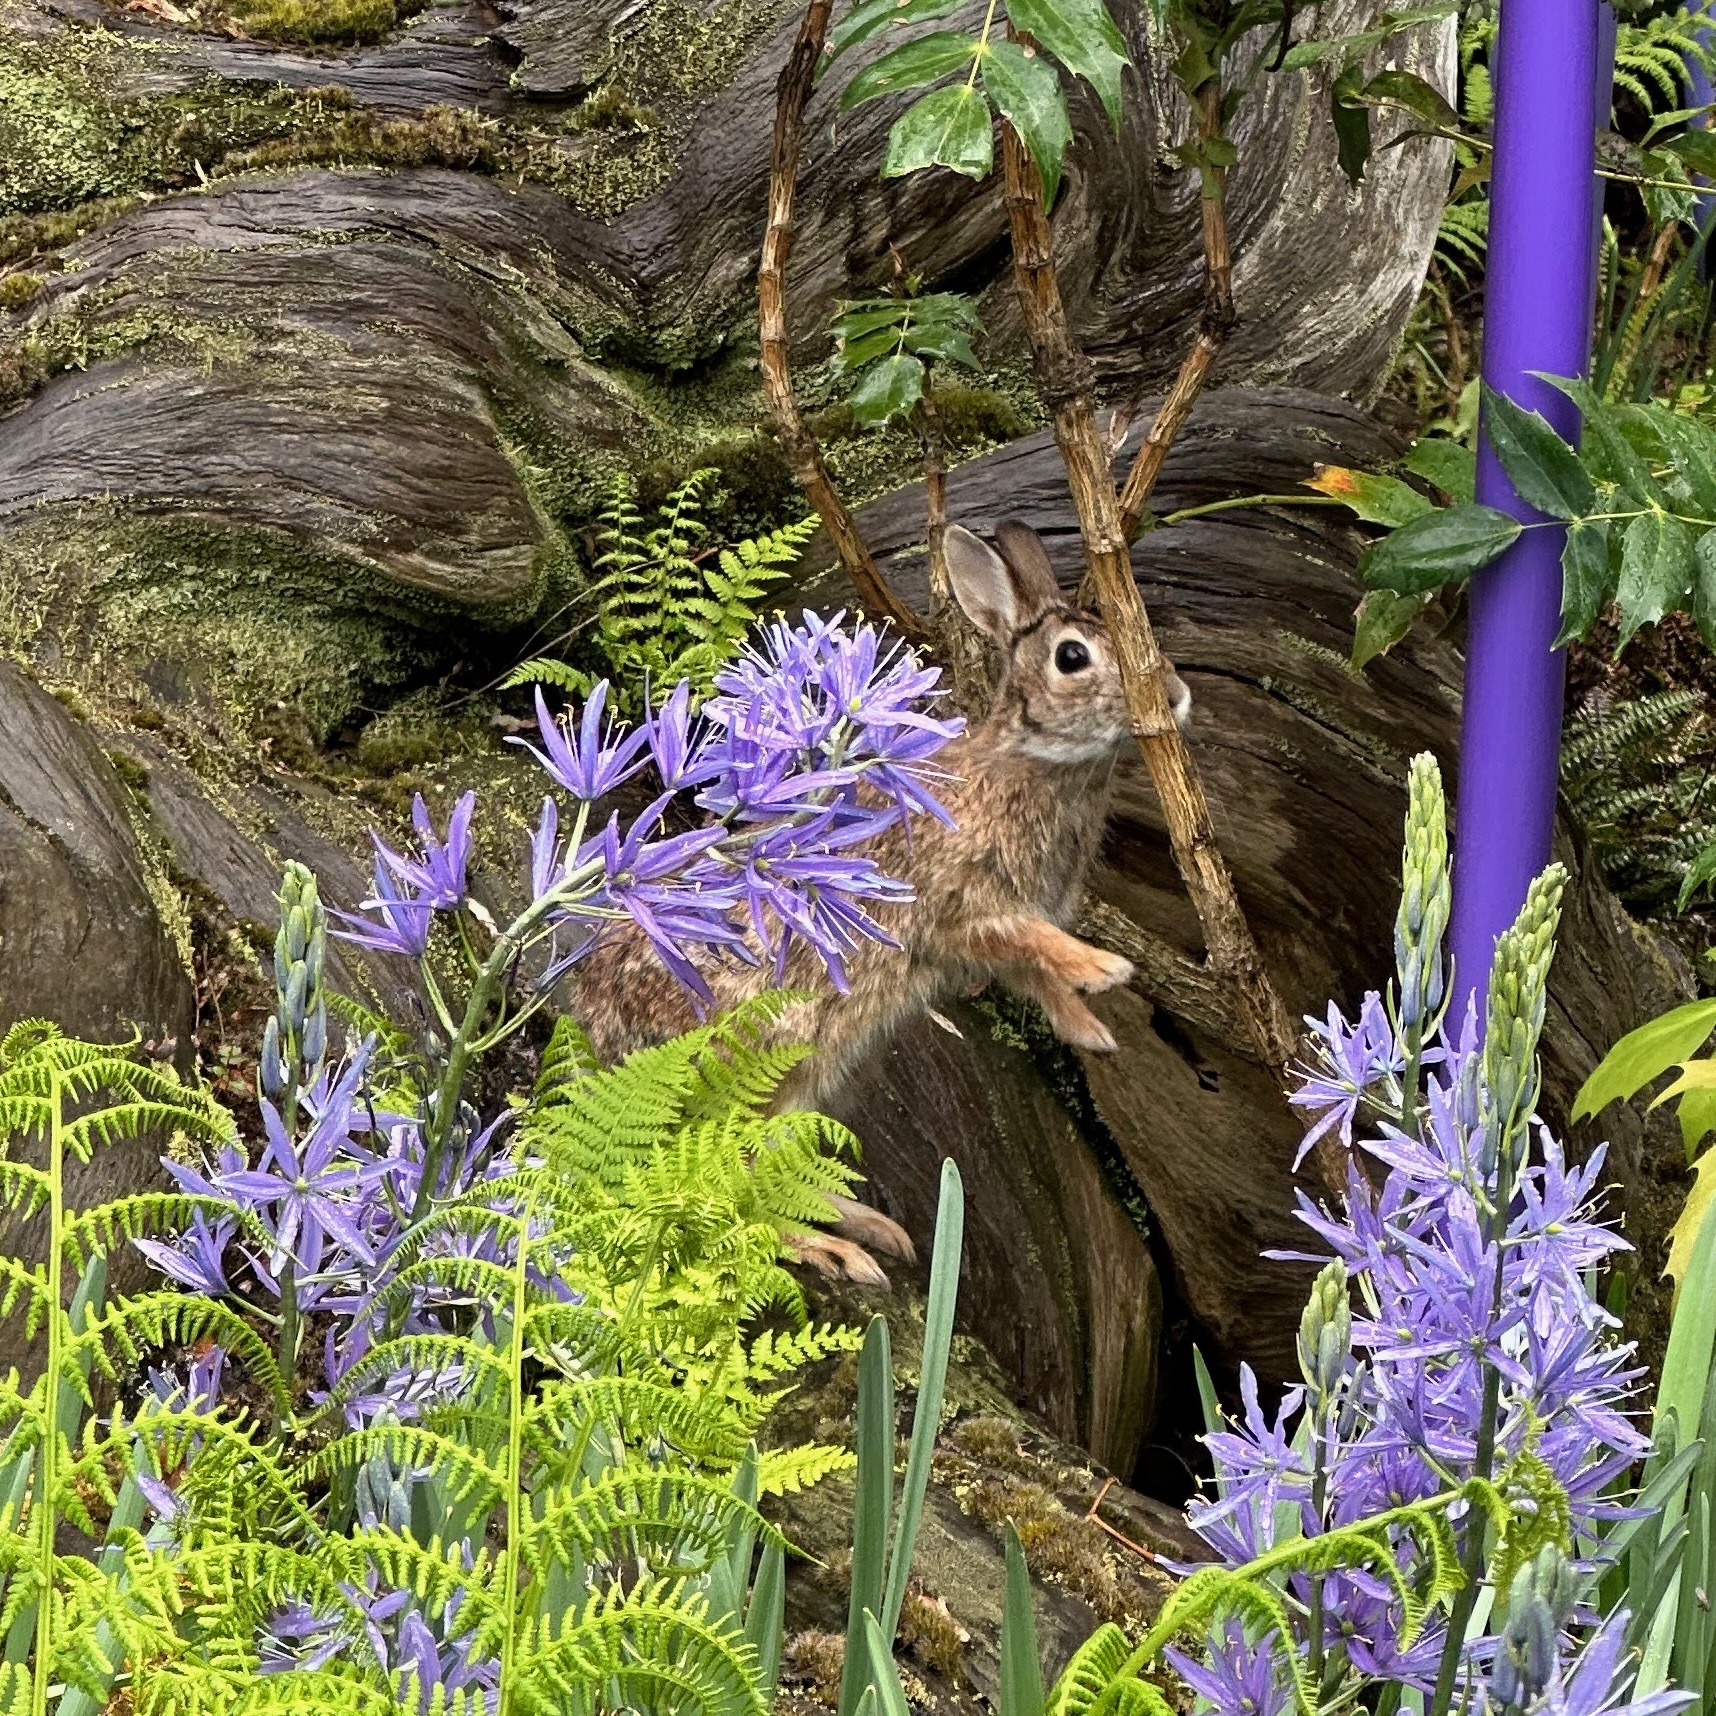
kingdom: Animalia
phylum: Chordata
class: Mammalia
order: Lagomorpha
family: Leporidae
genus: Sylvilagus
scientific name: Sylvilagus floridanus
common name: Eastern cottontail
